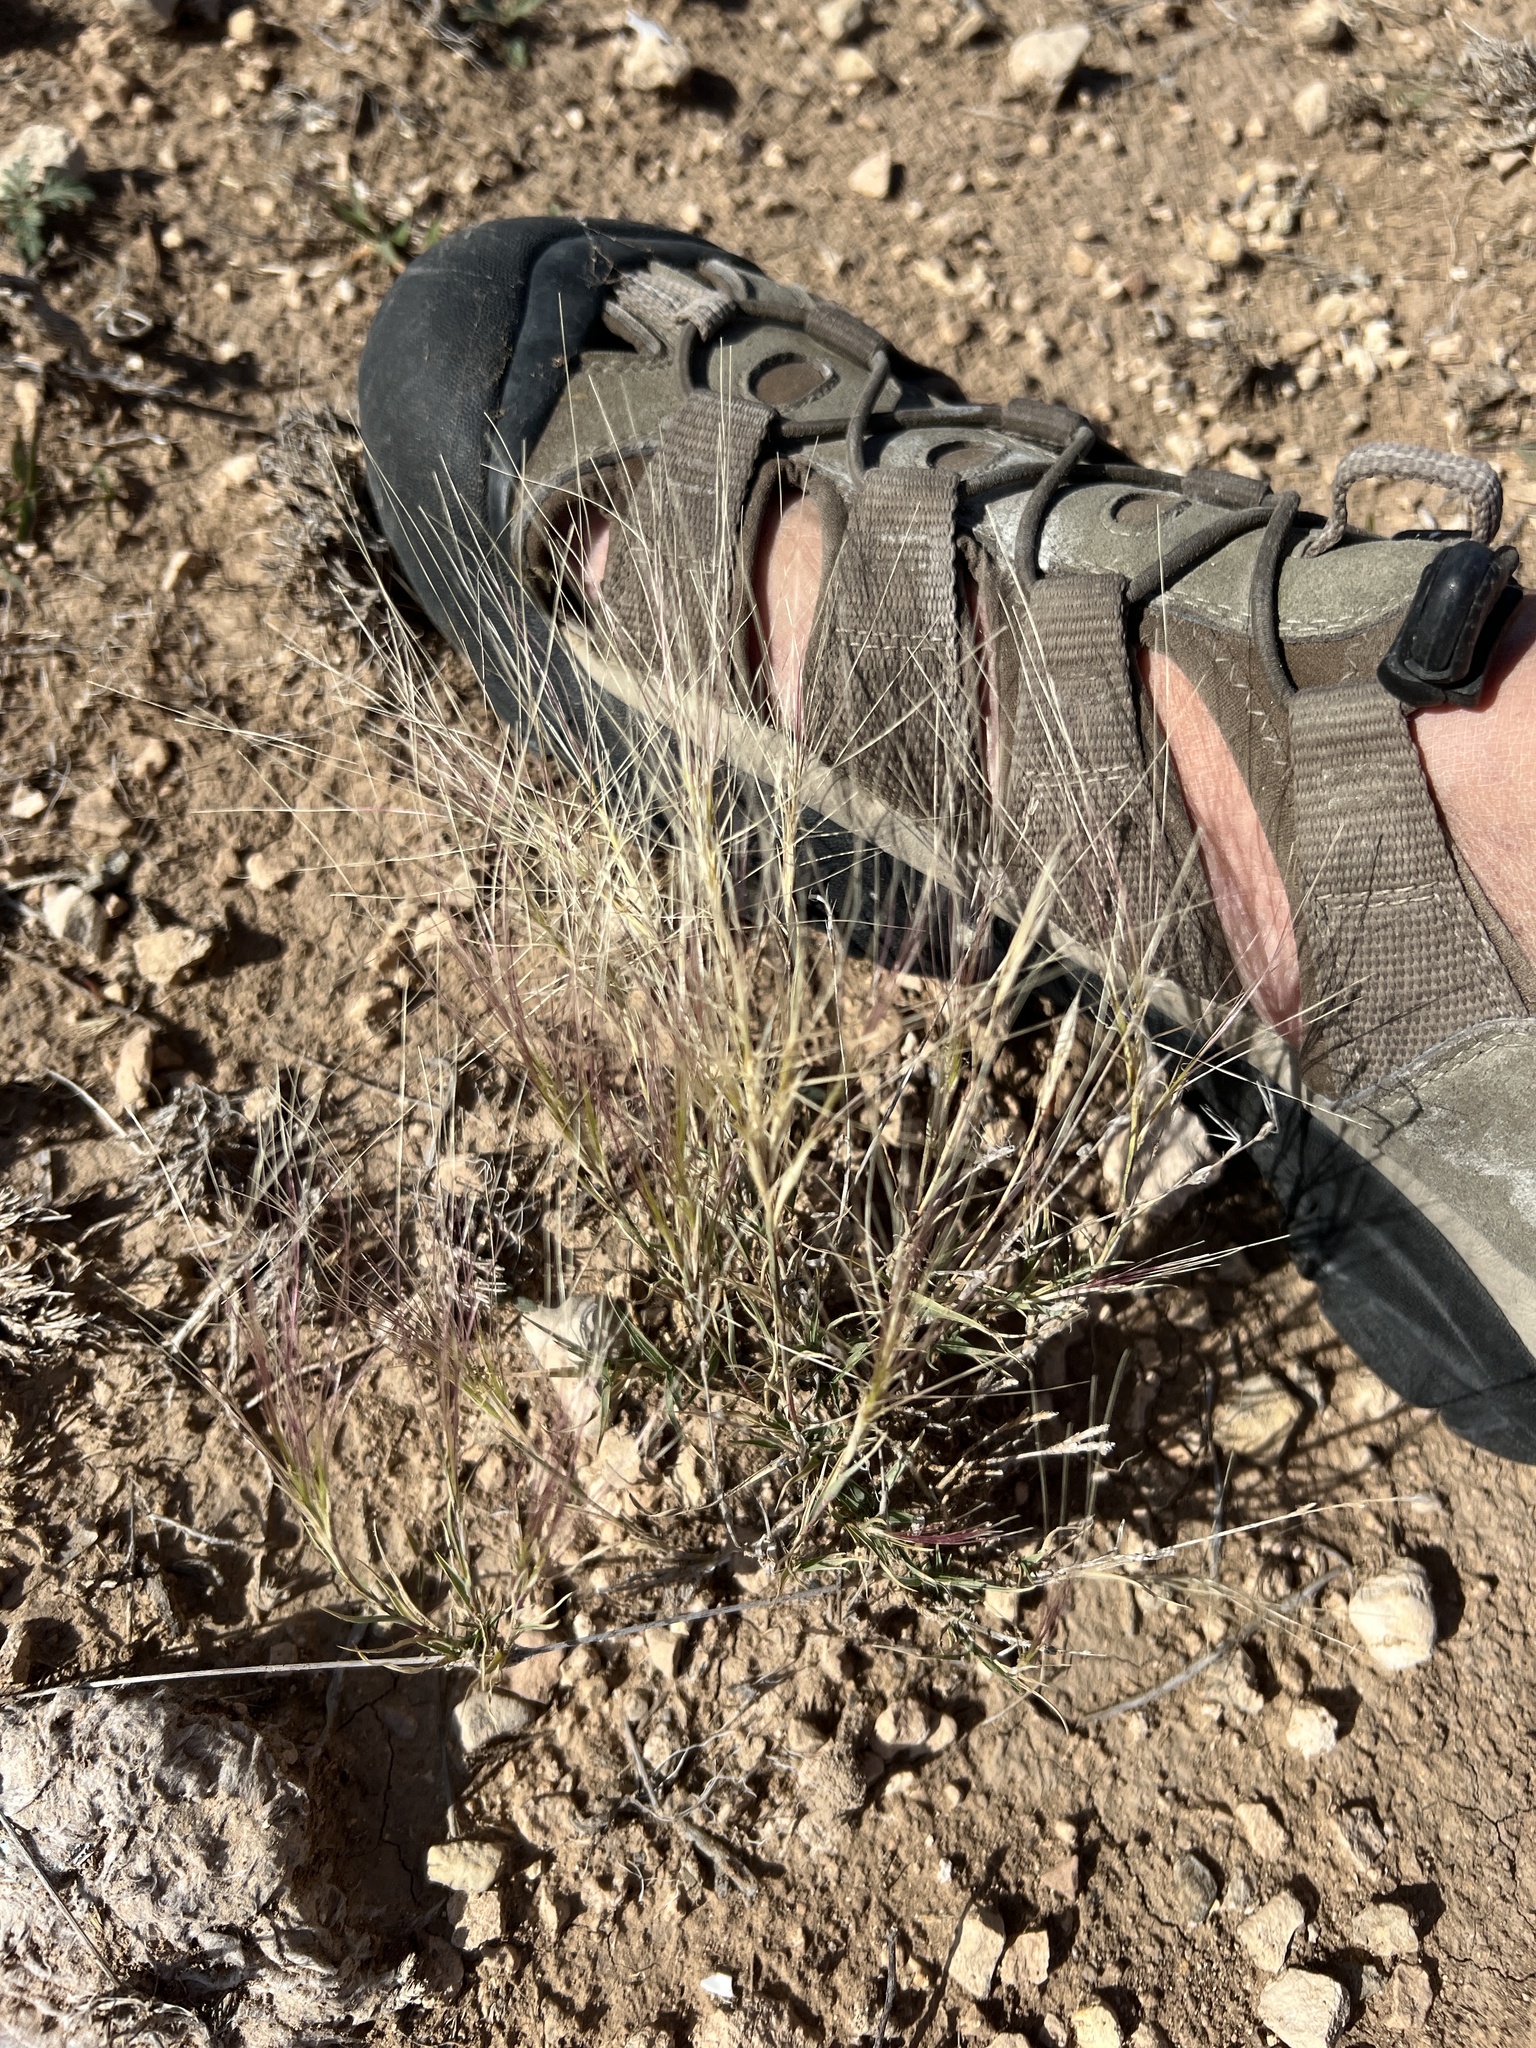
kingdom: Plantae
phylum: Tracheophyta
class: Liliopsida
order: Poales
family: Poaceae
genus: Scleropogon
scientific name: Scleropogon brevifolius
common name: Burro grass
